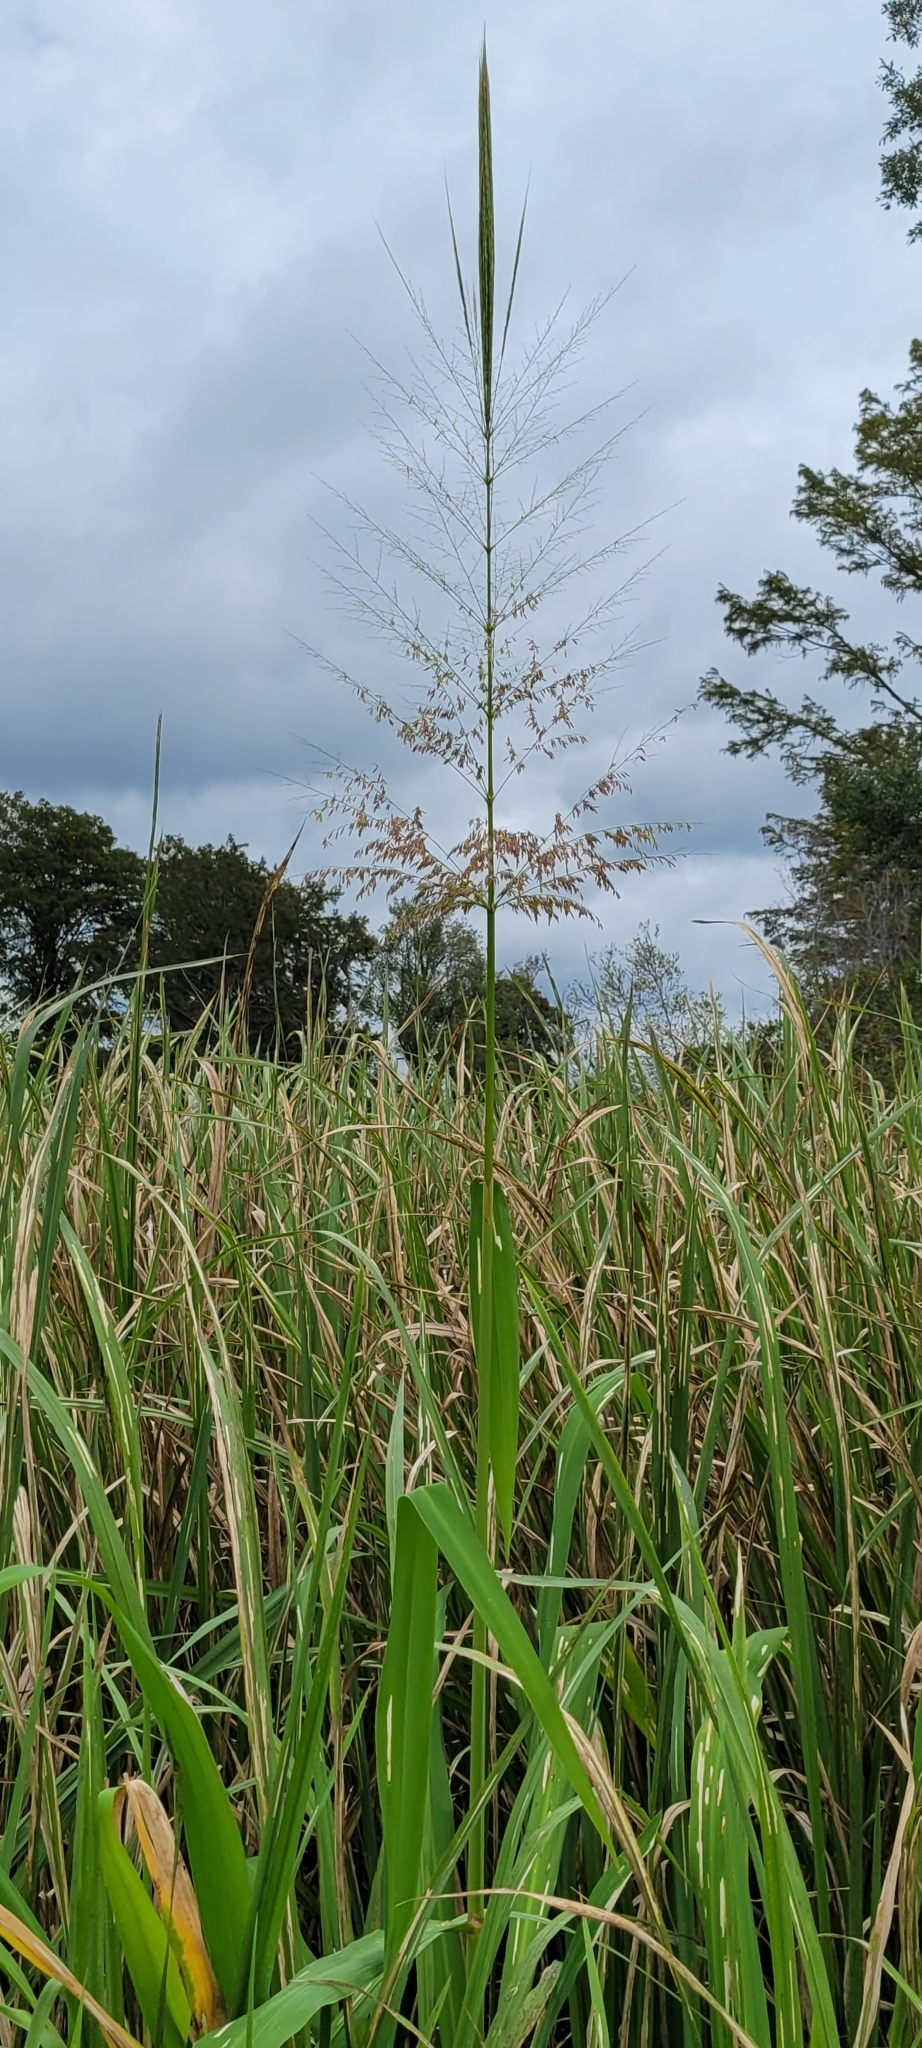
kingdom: Plantae
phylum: Tracheophyta
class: Liliopsida
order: Poales
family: Poaceae
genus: Zizania
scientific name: Zizania aquatica
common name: Annual wildrice
